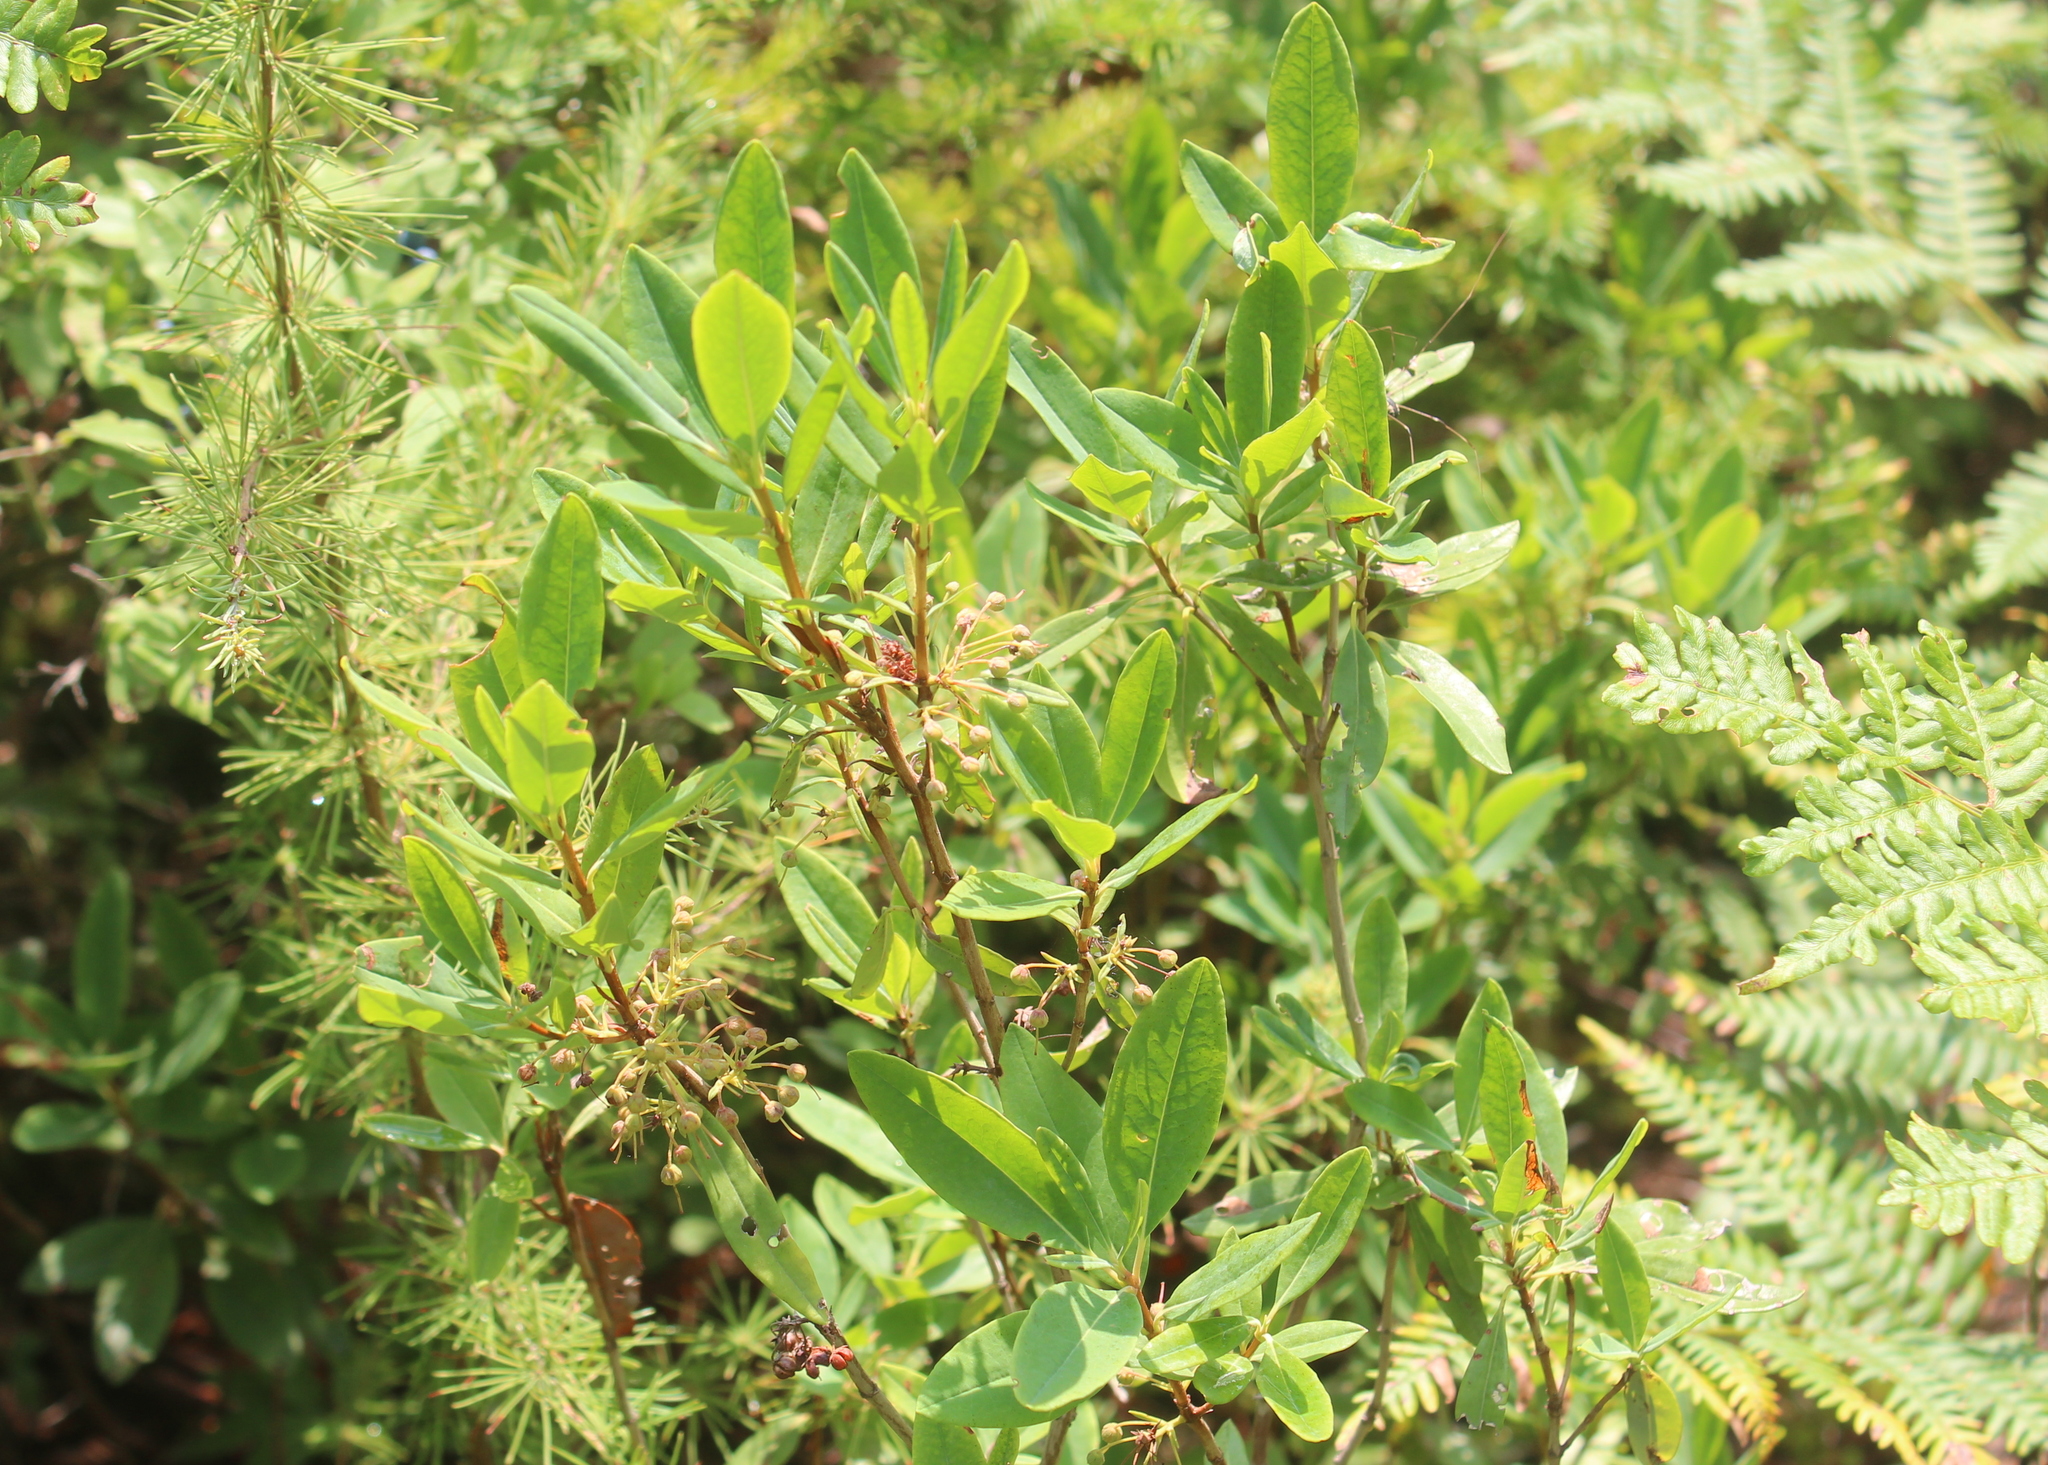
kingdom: Plantae
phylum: Tracheophyta
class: Magnoliopsida
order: Ericales
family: Ericaceae
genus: Kalmia
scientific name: Kalmia angustifolia
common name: Sheep-laurel
